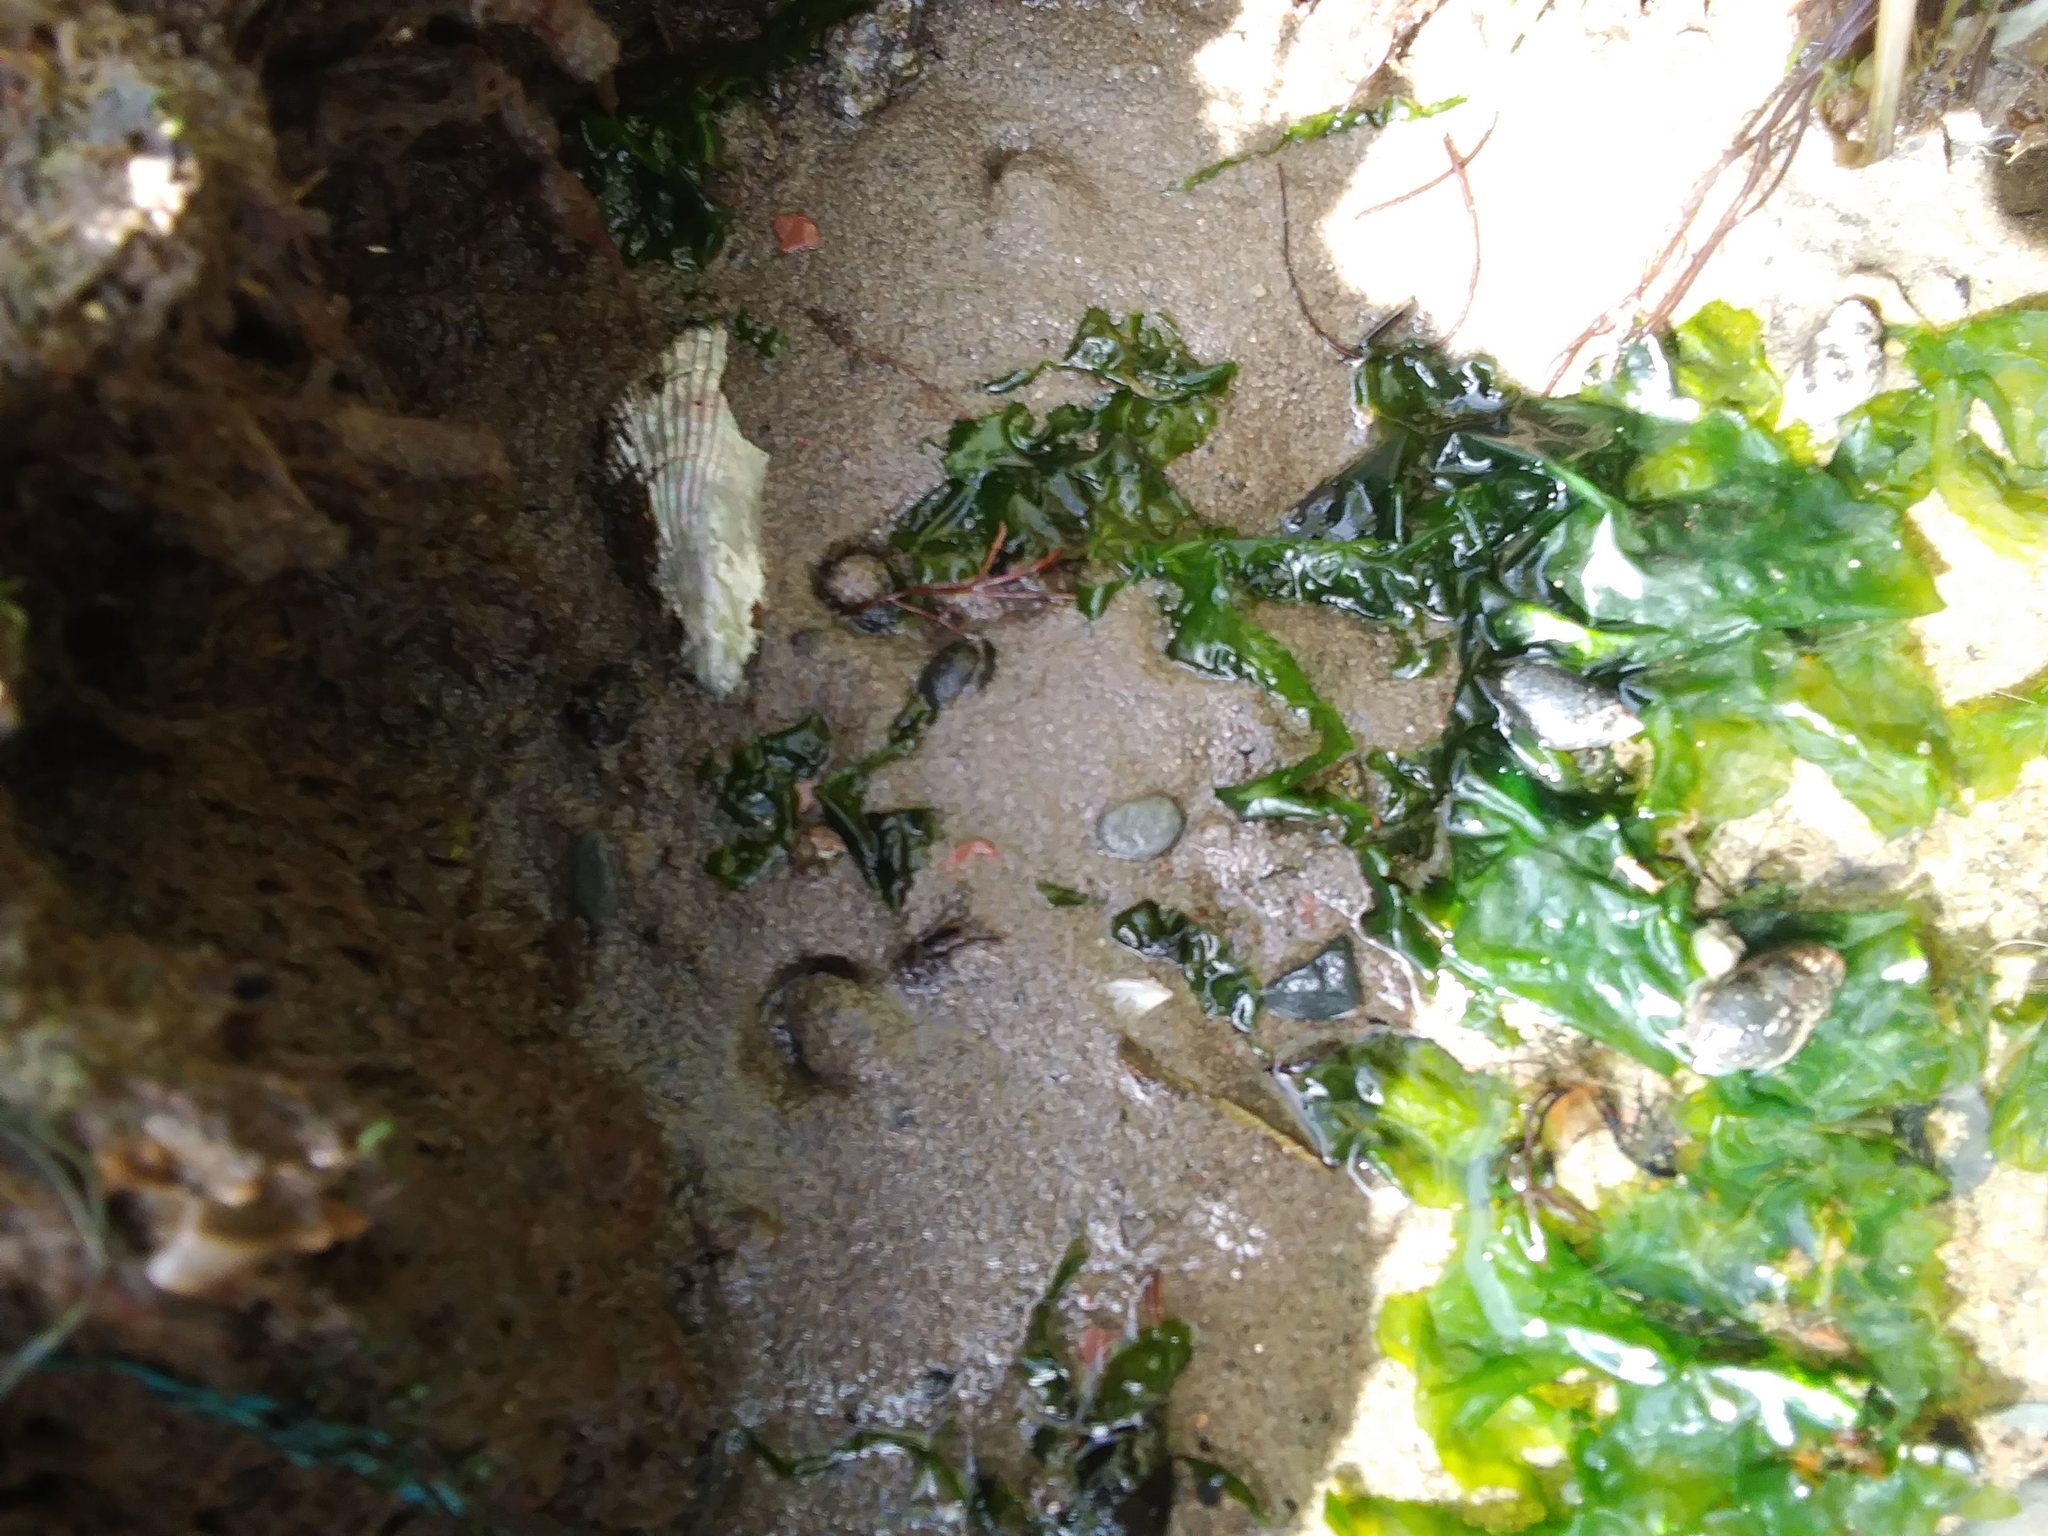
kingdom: Animalia
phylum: Mollusca
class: Bivalvia
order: Mytilida
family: Mytilidae
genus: Geukensia
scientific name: Geukensia demissa
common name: Ribbed mussel
